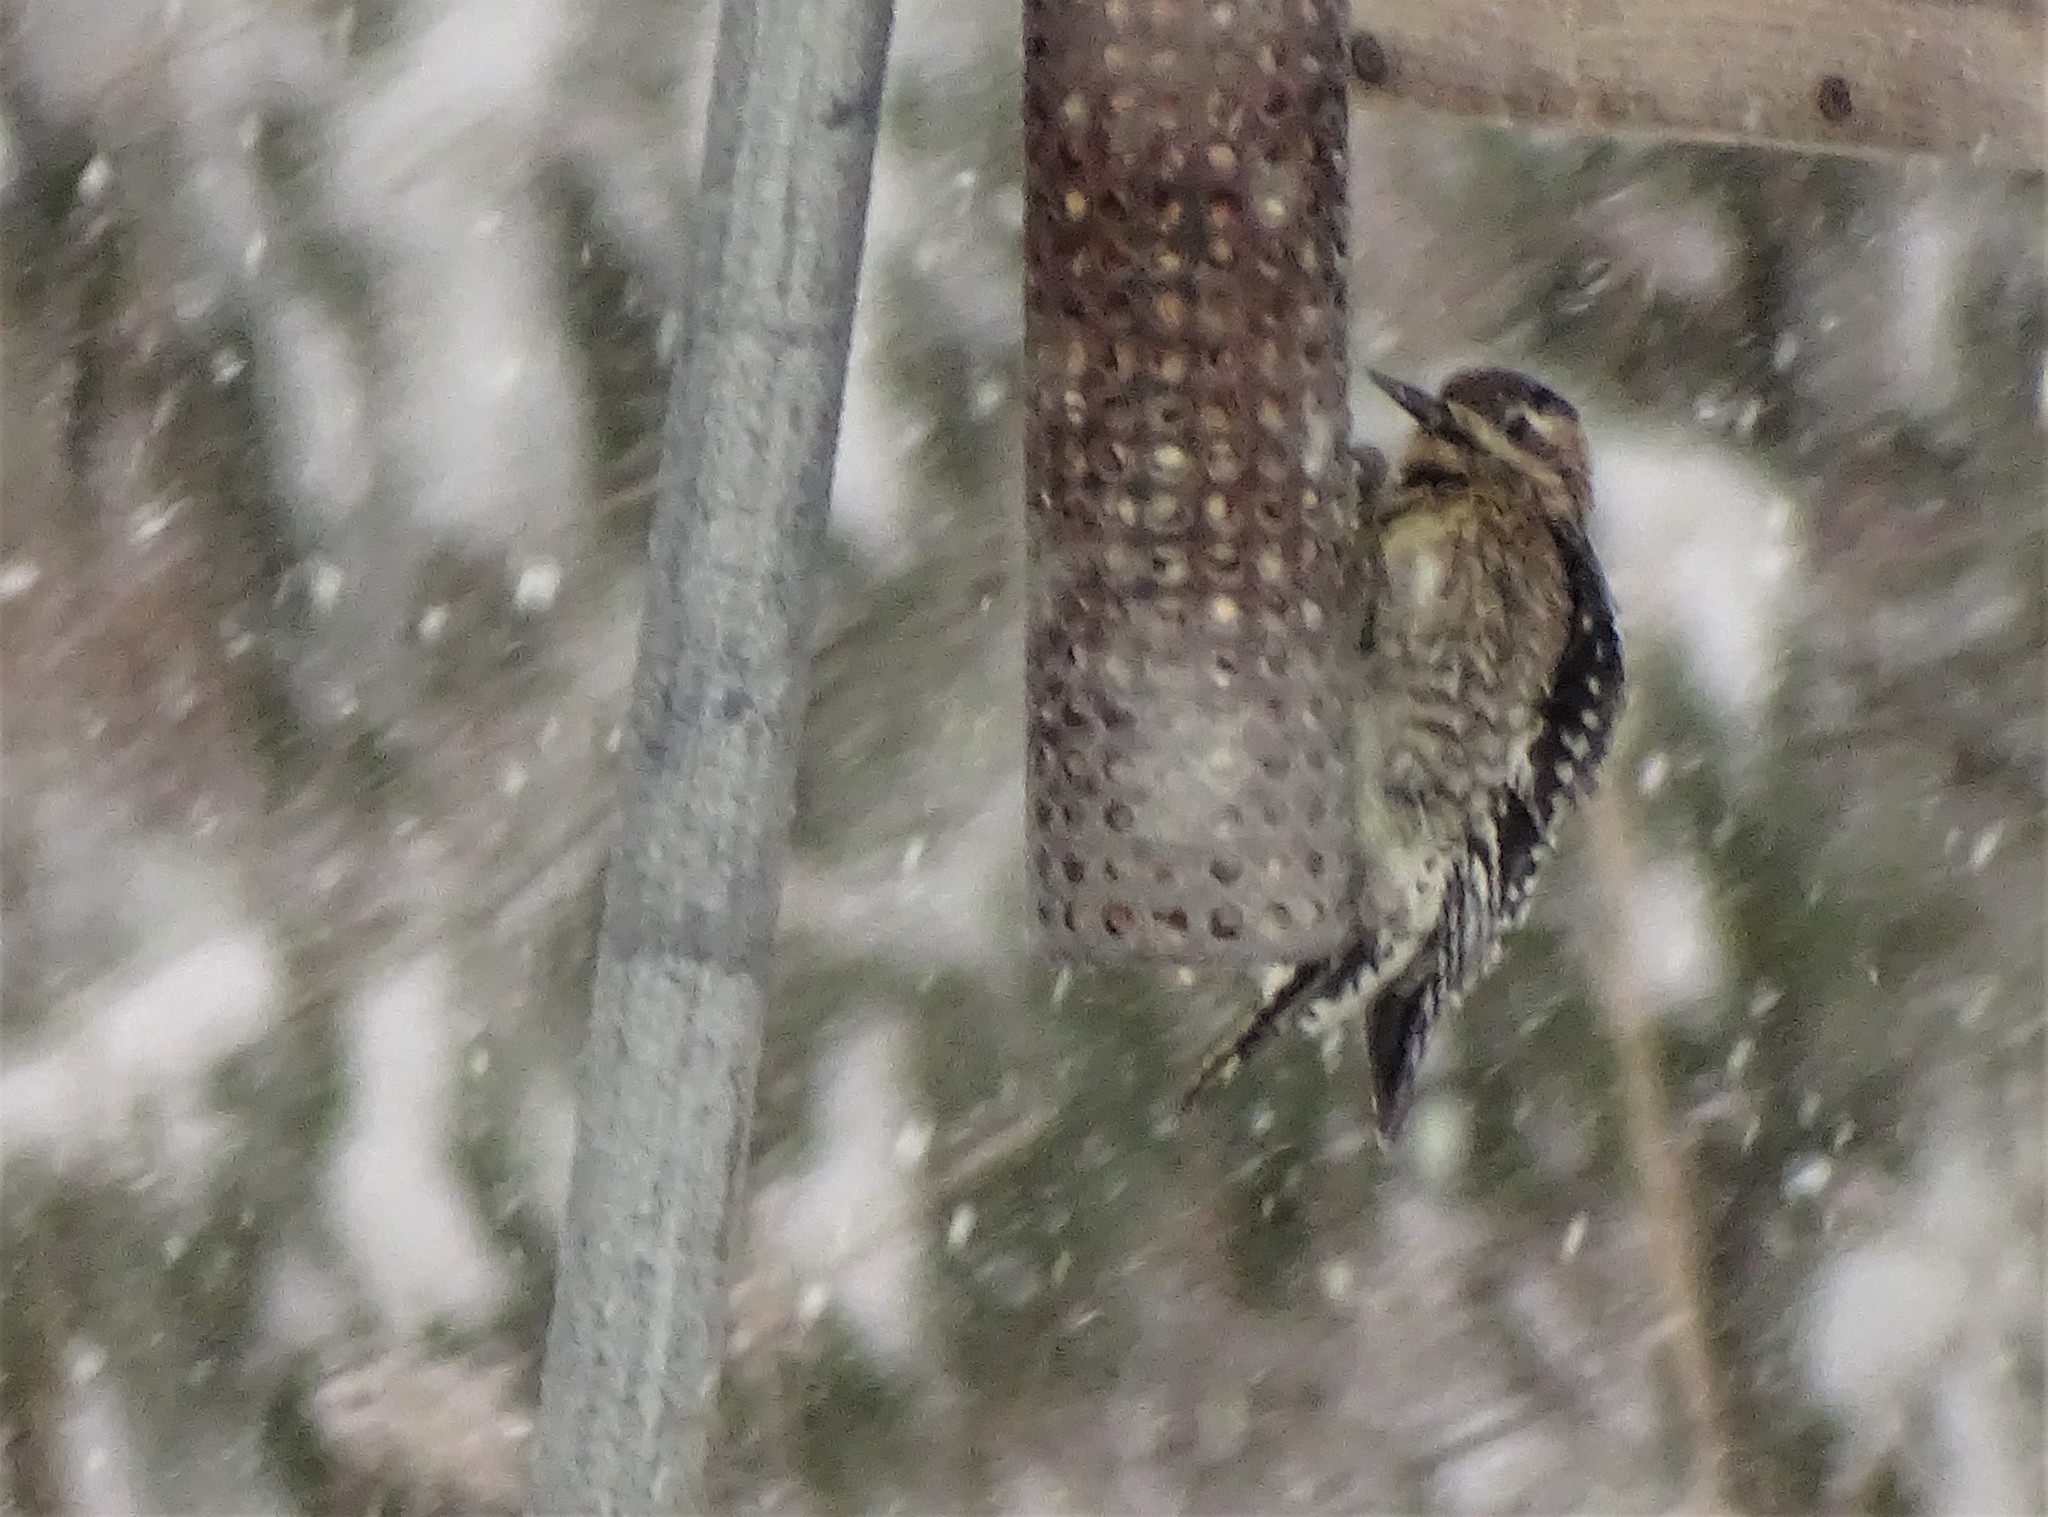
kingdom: Animalia
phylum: Chordata
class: Aves
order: Piciformes
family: Picidae
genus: Sphyrapicus
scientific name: Sphyrapicus varius
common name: Yellow-bellied sapsucker
